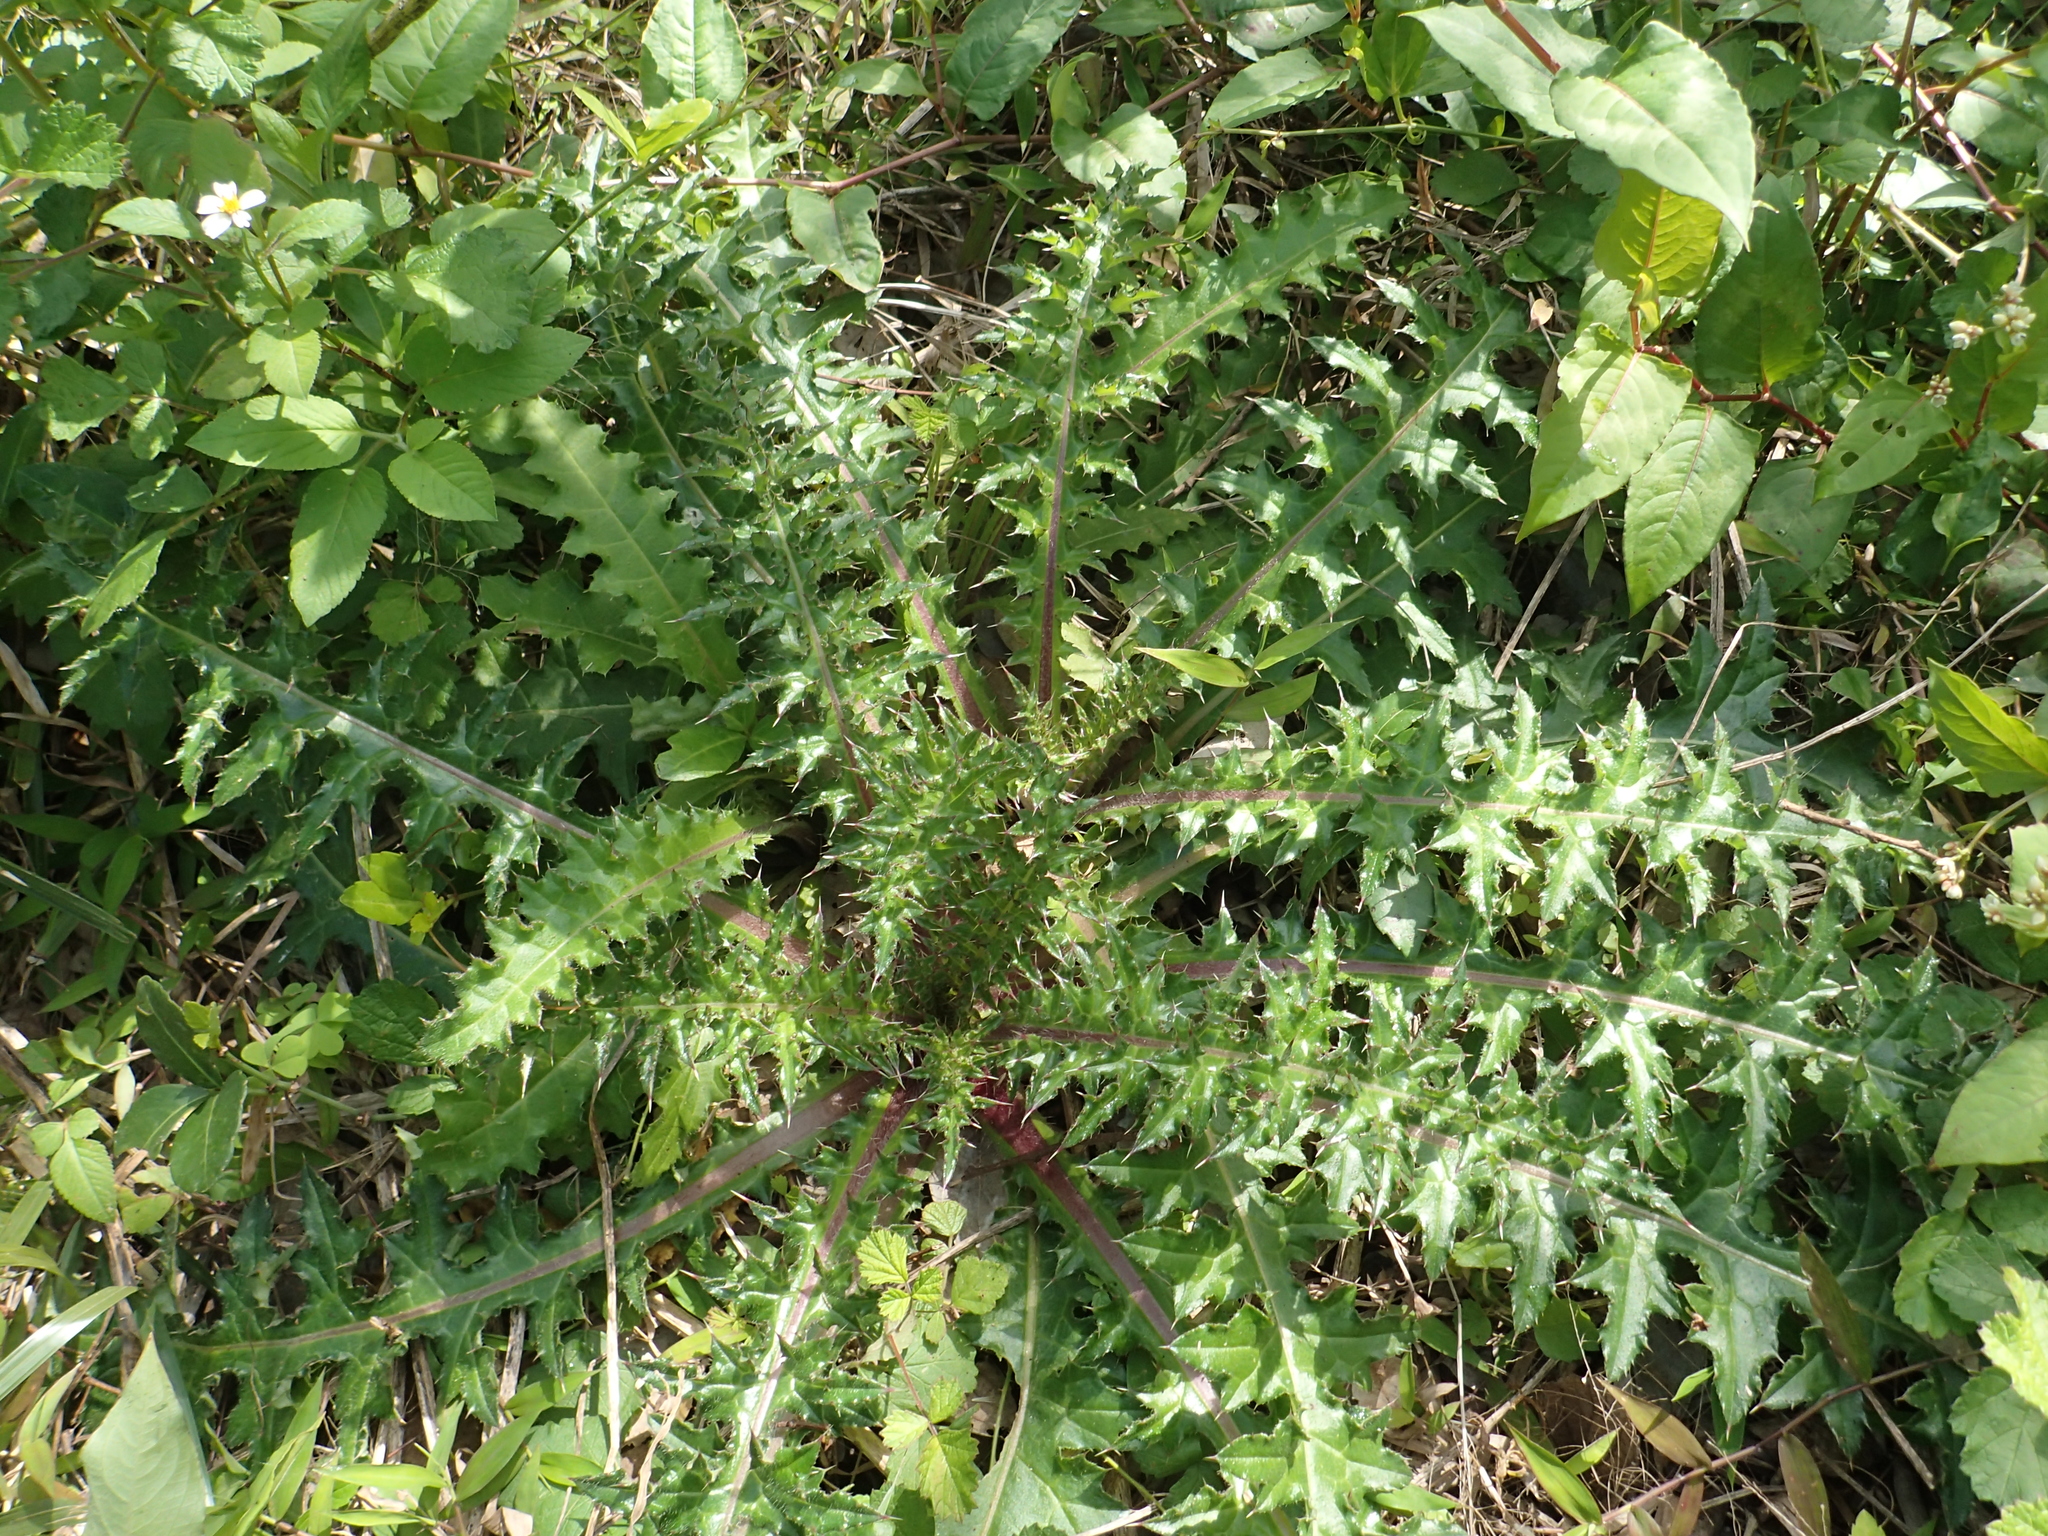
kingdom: Plantae
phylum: Tracheophyta
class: Magnoliopsida
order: Asterales
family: Asteraceae
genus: Cirsium
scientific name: Cirsium japonicum
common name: Japanese thistle
